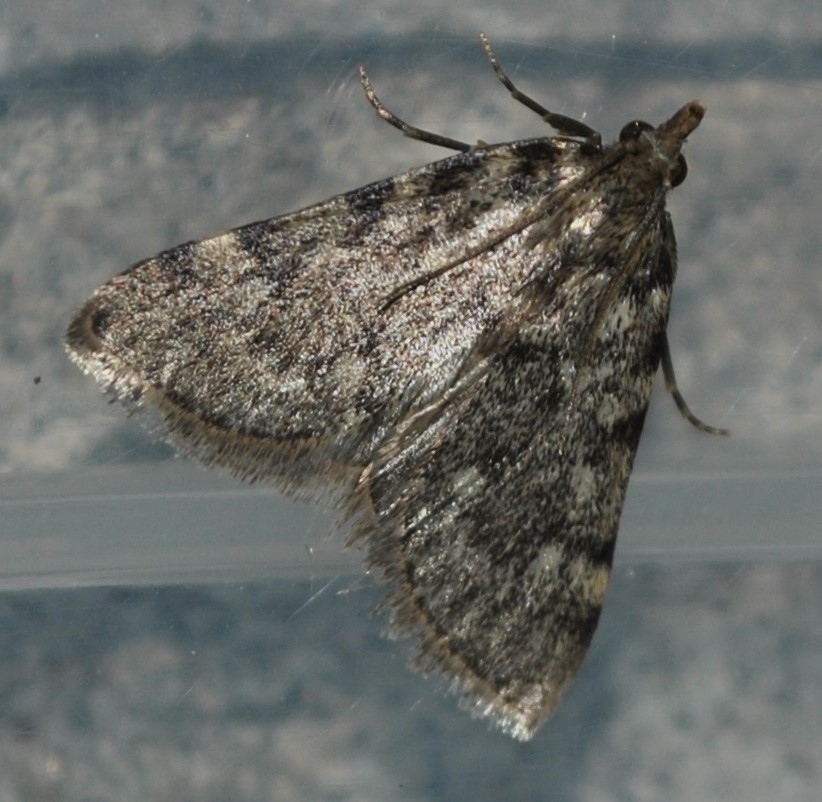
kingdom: Animalia
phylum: Arthropoda
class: Insecta
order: Lepidoptera
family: Pyralidae
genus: Aglossa
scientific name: Aglossa pinguinalis
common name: Large tabby
